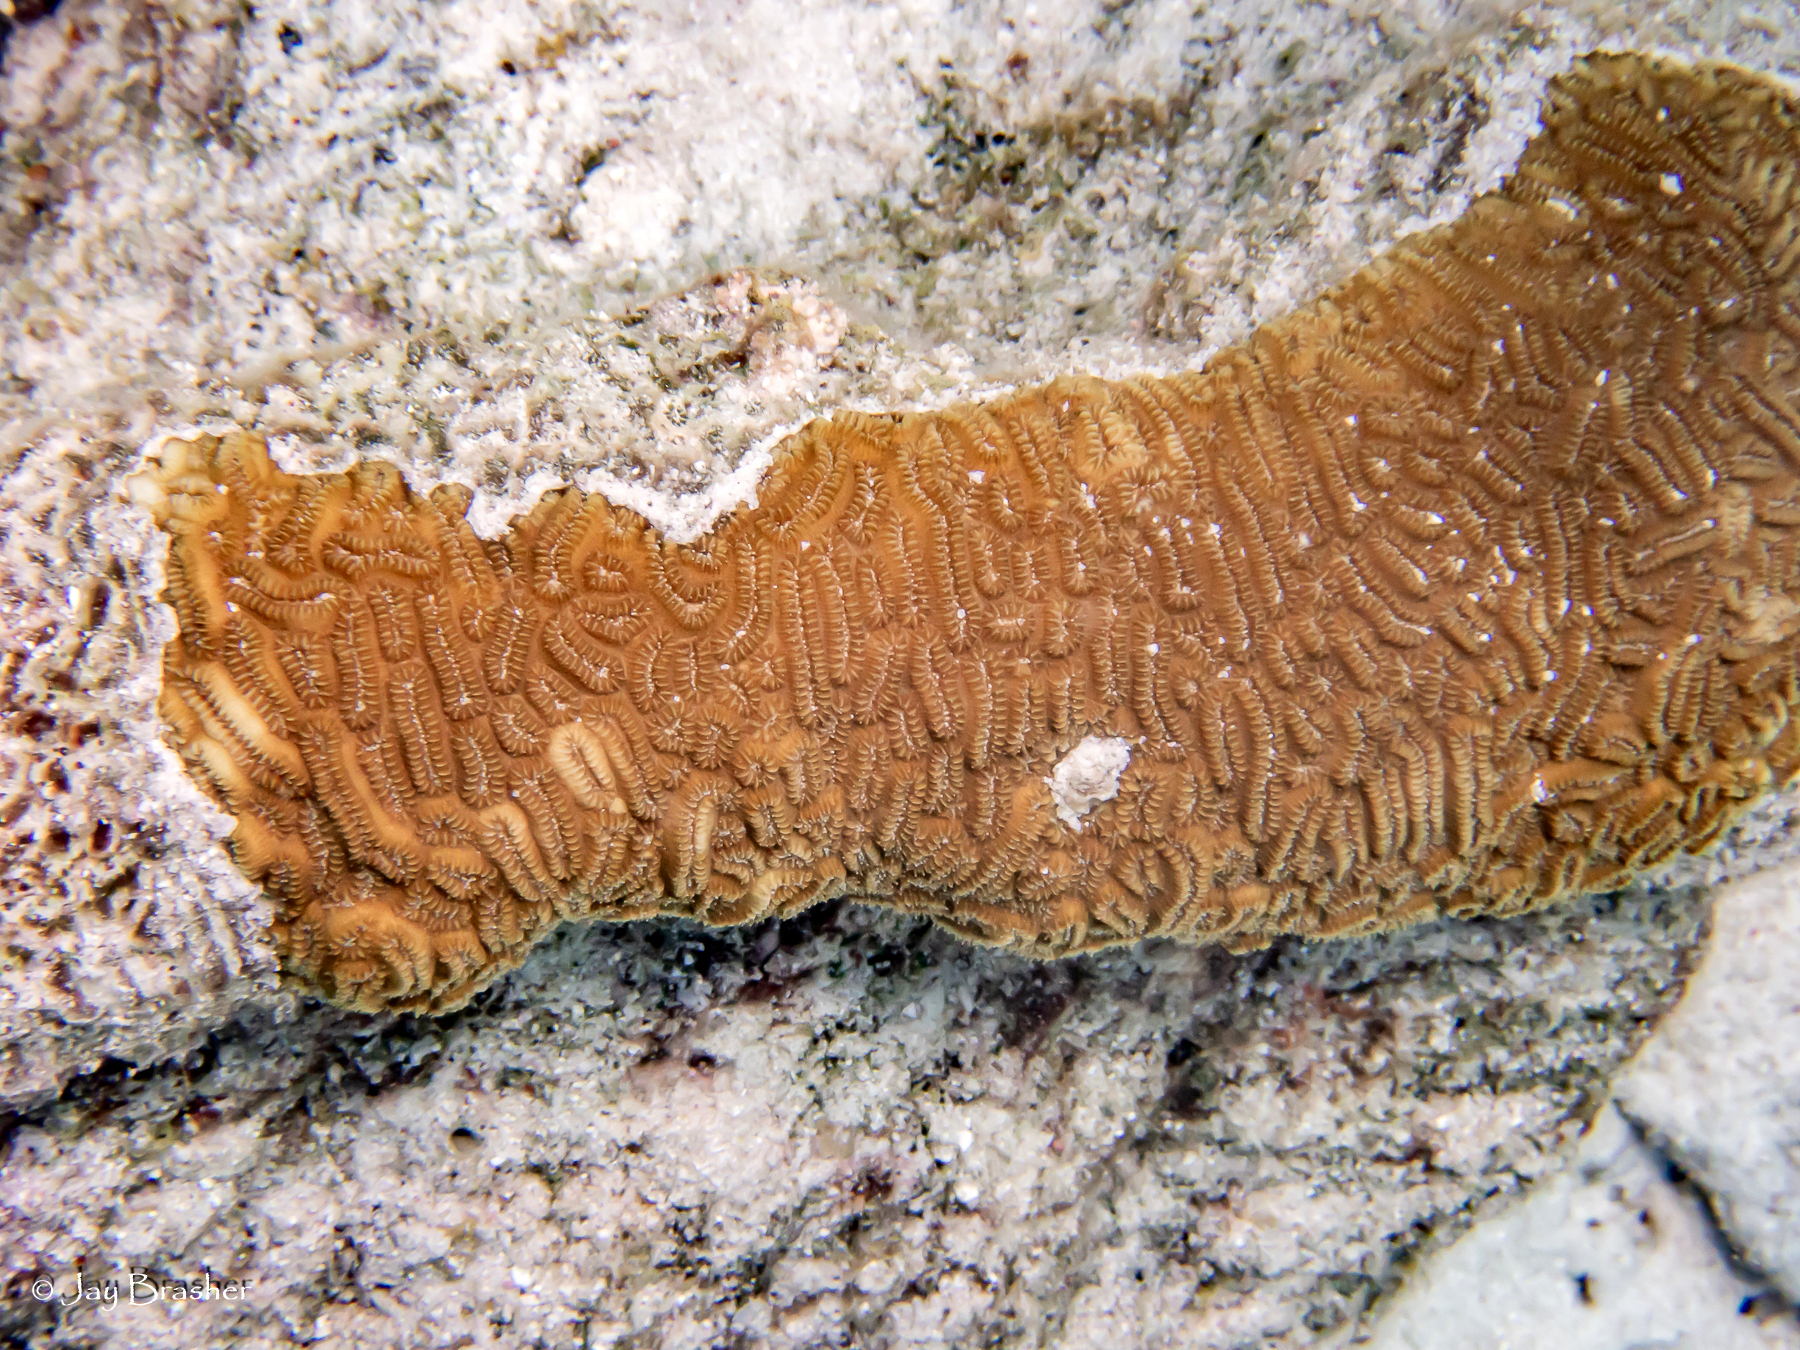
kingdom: Animalia
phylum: Cnidaria
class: Anthozoa
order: Scleractinia
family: Meandrinidae
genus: Dichocoenia
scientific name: Dichocoenia stokesii
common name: Pineapple coral
